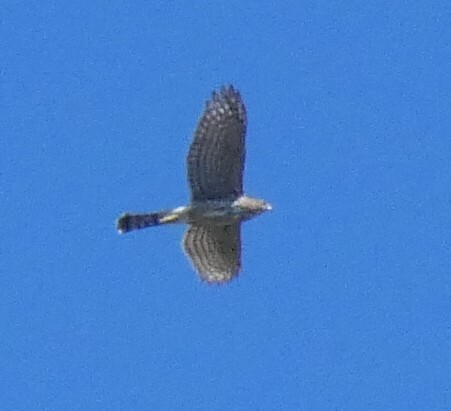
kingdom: Animalia
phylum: Chordata
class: Aves
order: Accipitriformes
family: Accipitridae
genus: Accipiter
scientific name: Accipiter cooperii
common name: Cooper's hawk
